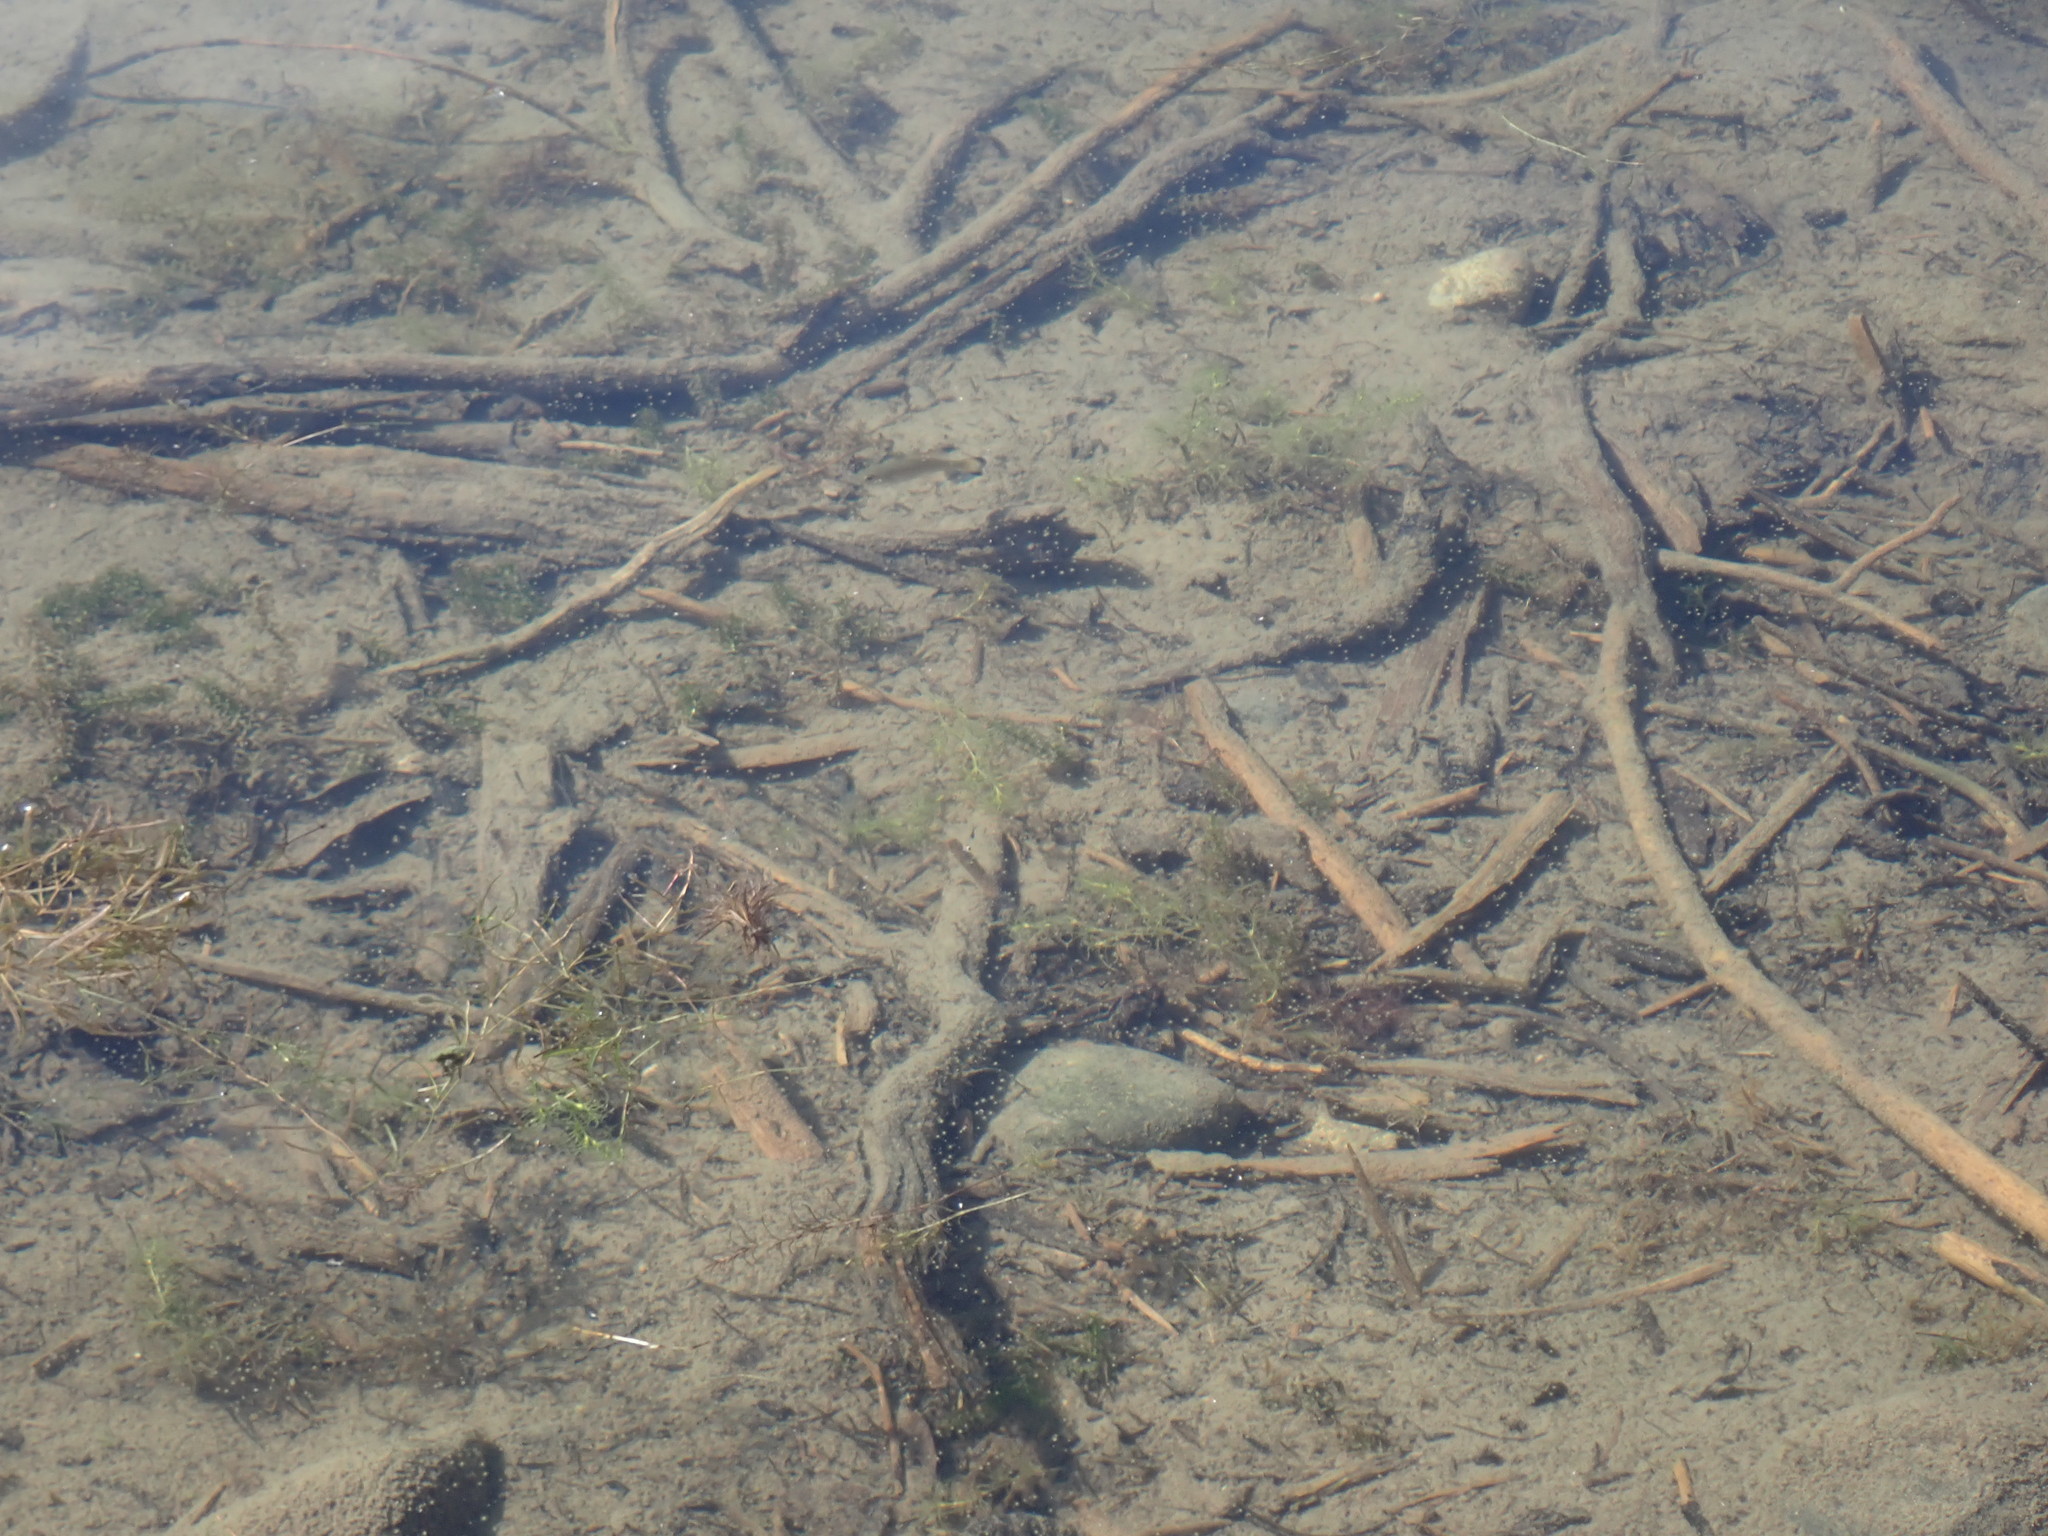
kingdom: Animalia
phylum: Chordata
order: Perciformes
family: Centrarchidae
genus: Micropterus
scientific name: Micropterus dolomieu
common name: Smallmouth bass
